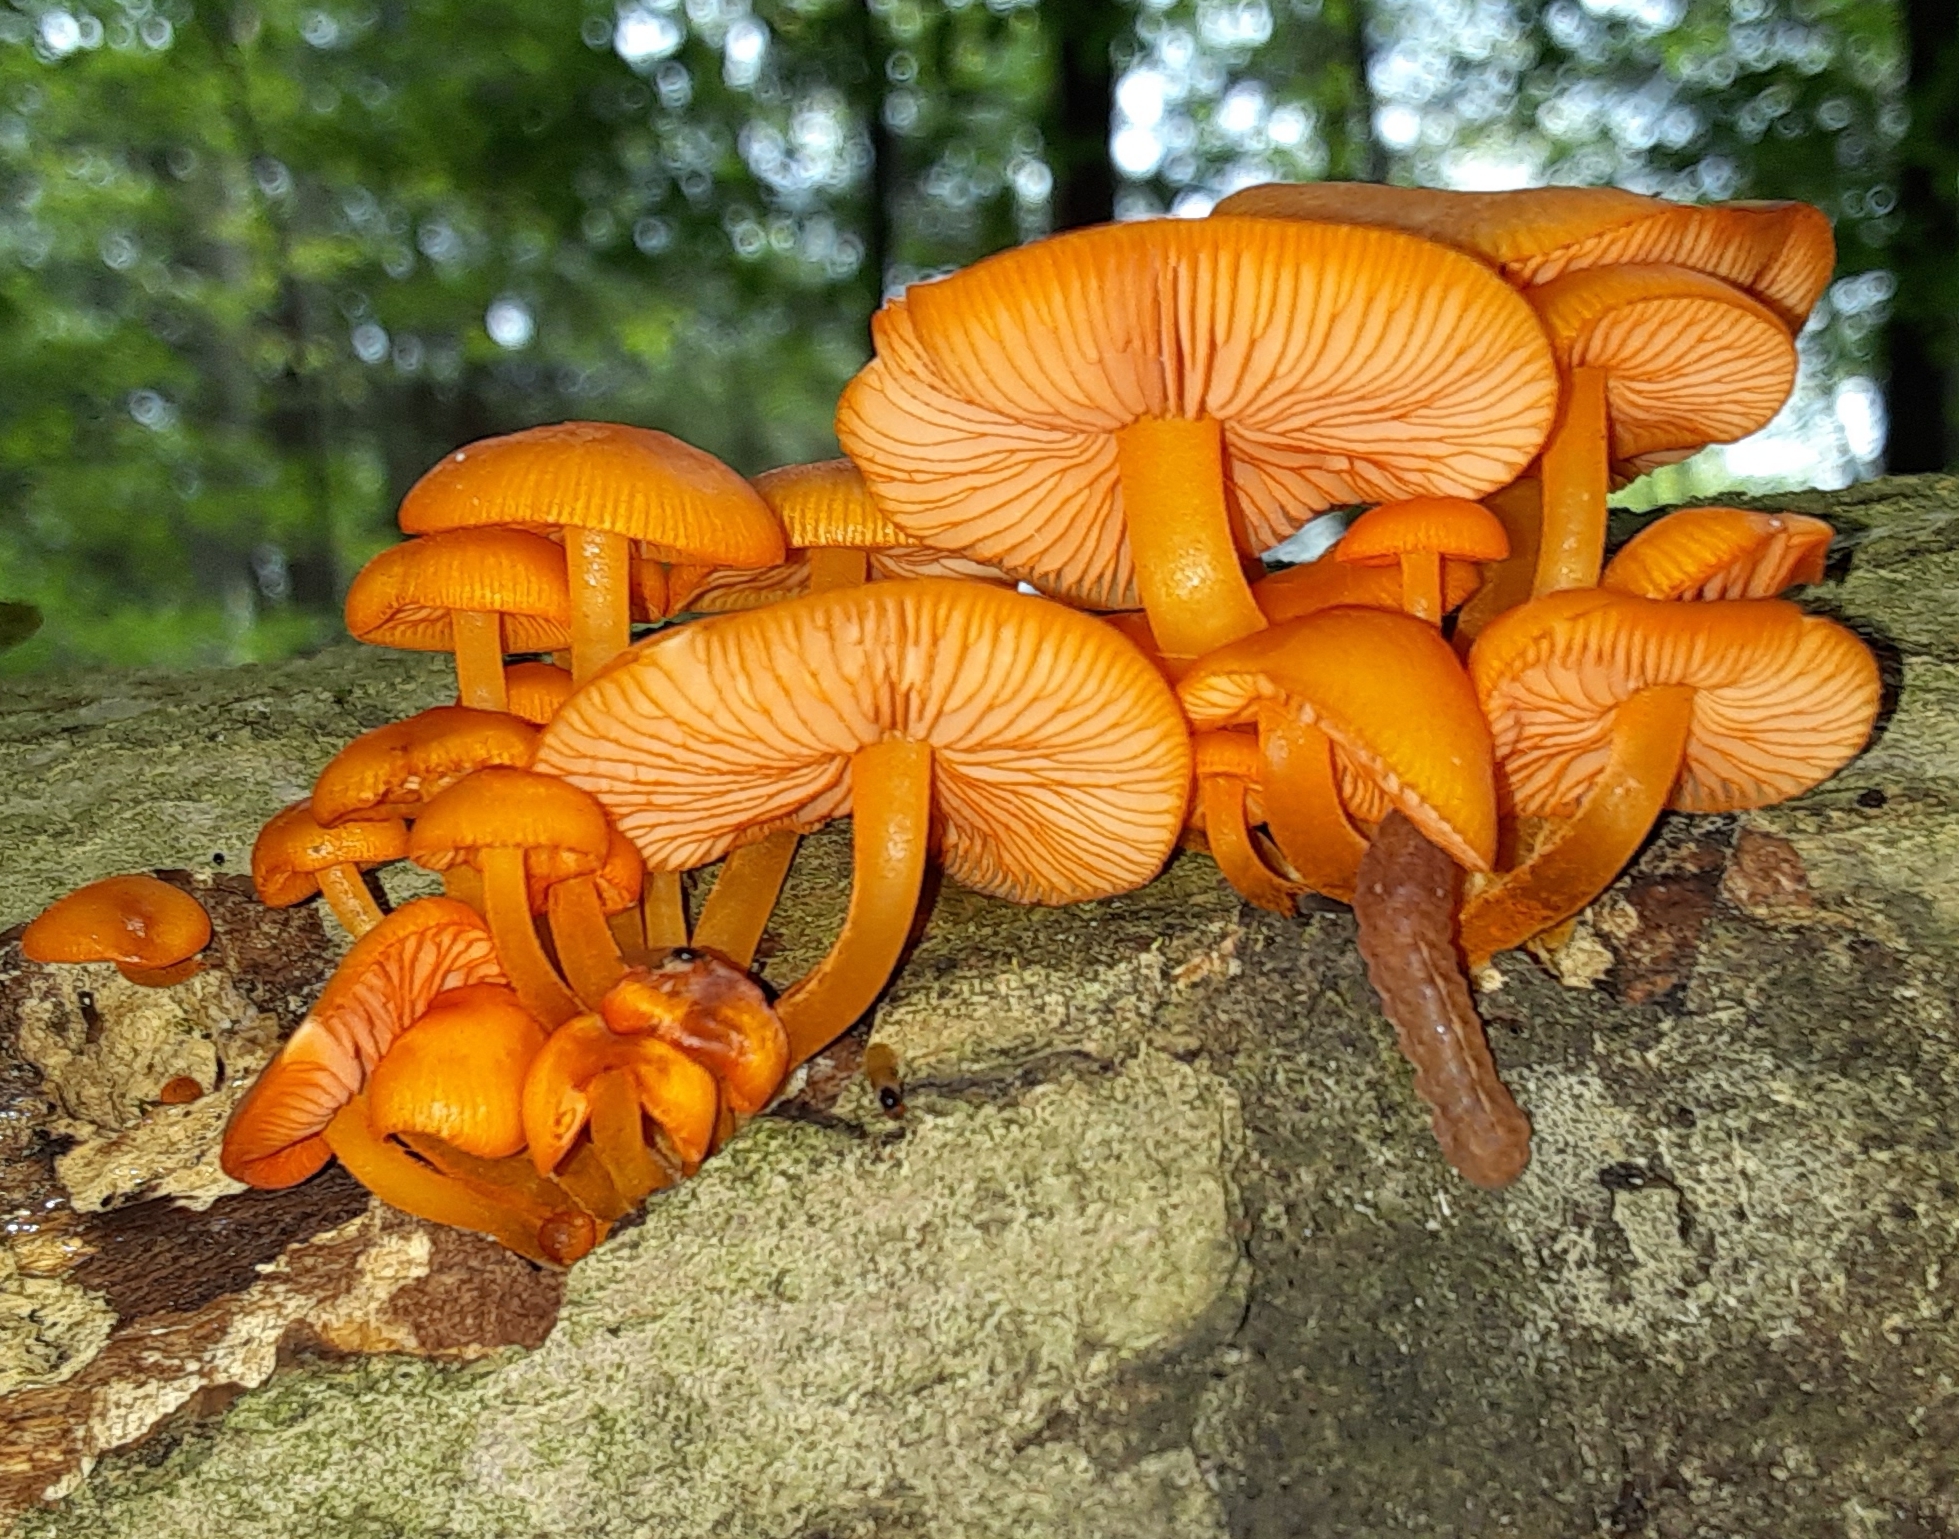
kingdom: Fungi
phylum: Basidiomycota
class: Agaricomycetes
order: Agaricales
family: Mycenaceae
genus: Mycena
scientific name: Mycena leaiana
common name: Orange mycena
